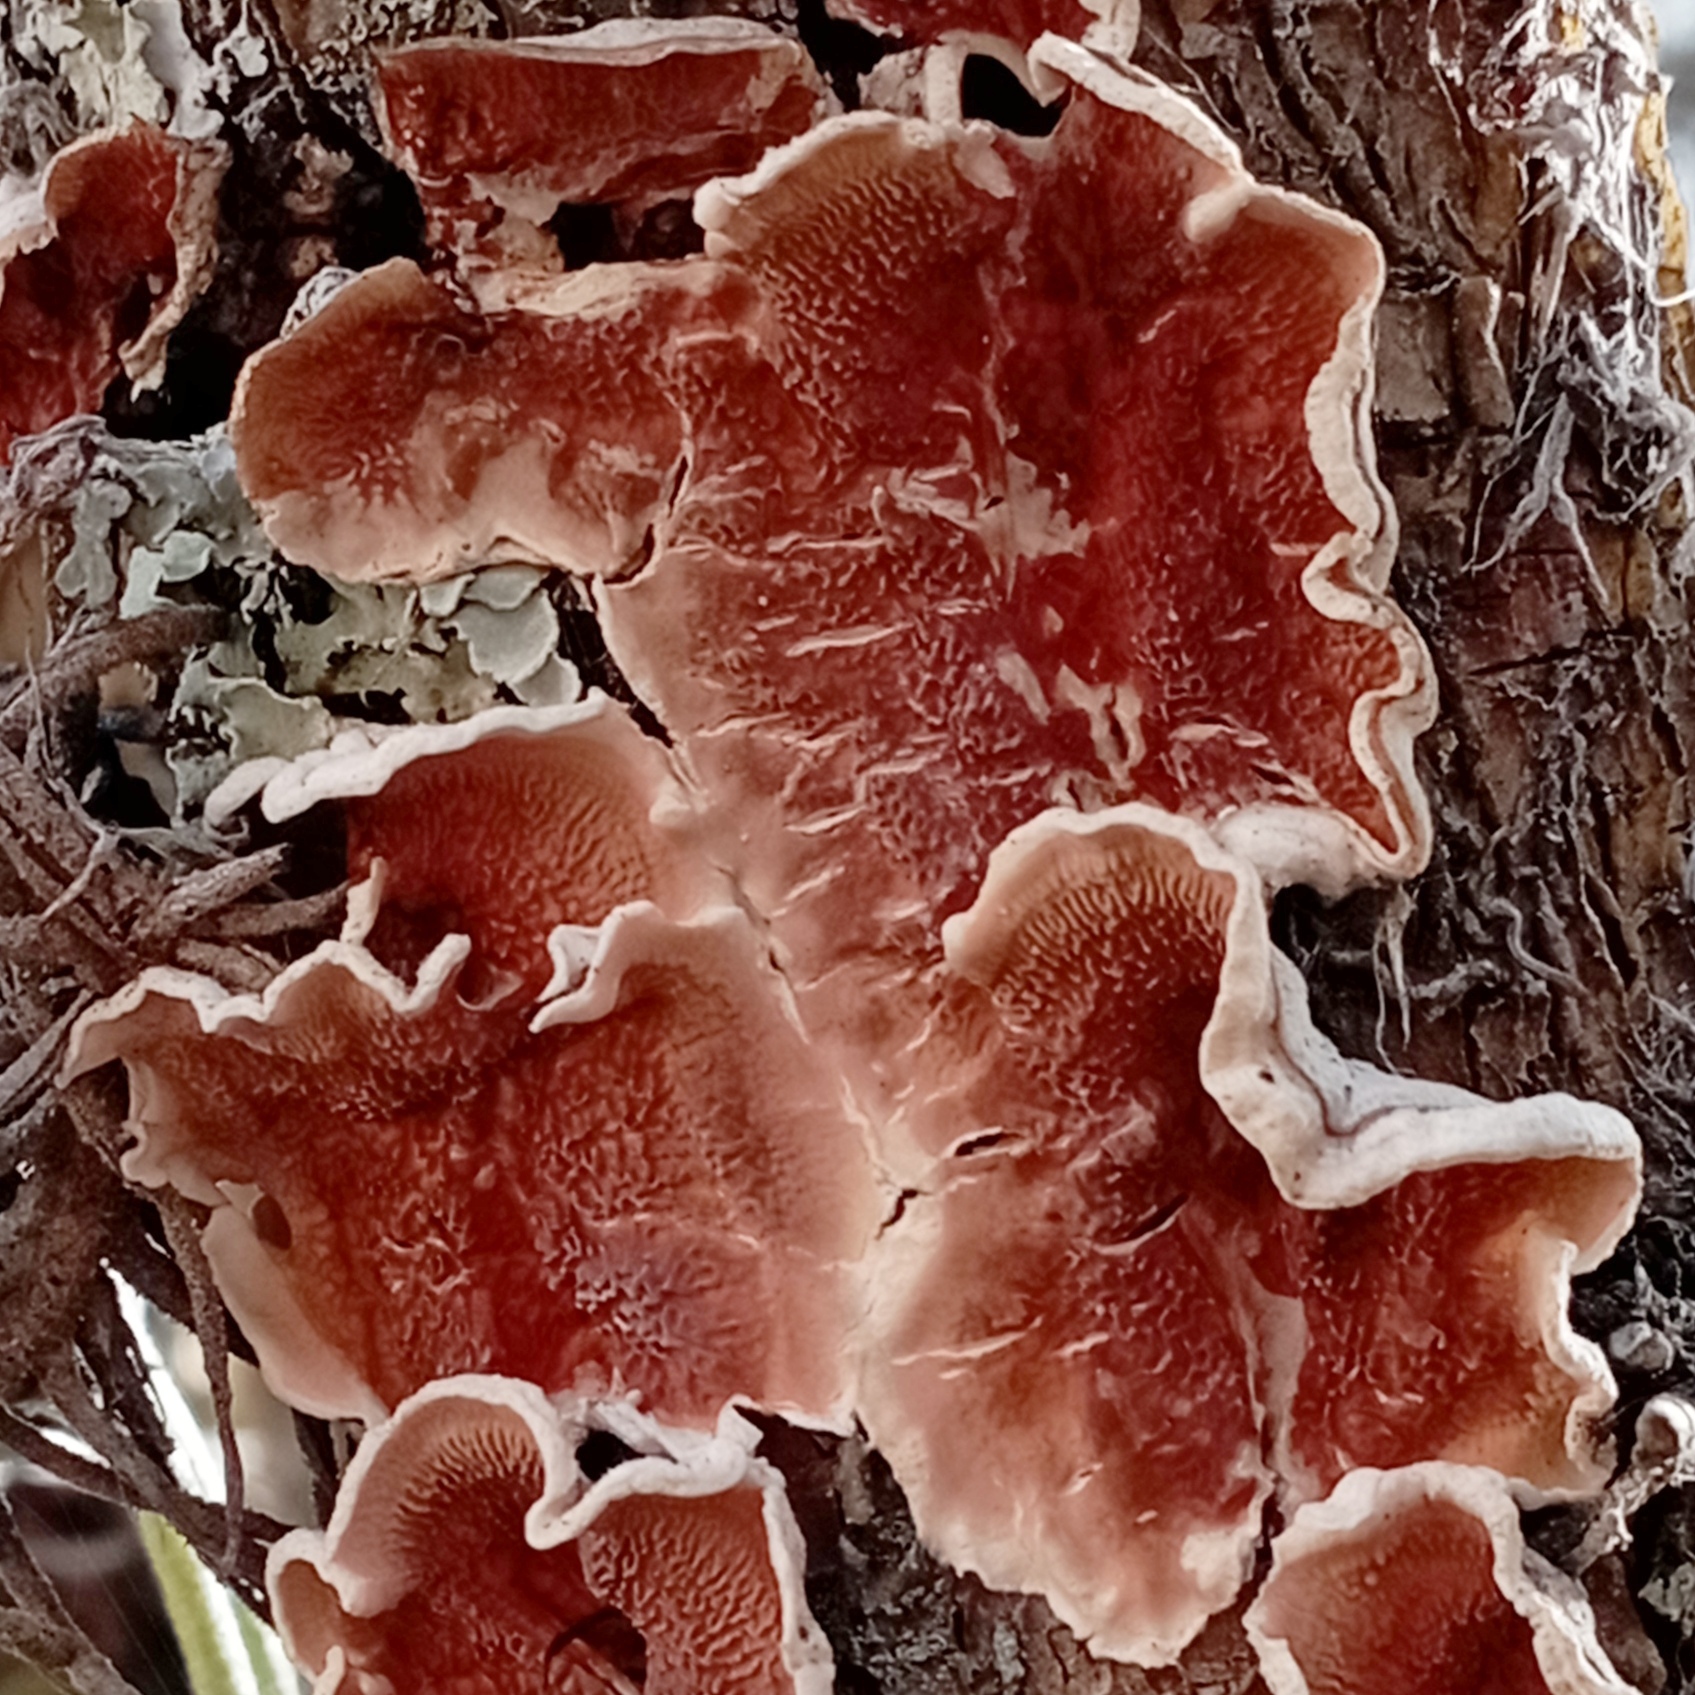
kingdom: Fungi
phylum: Basidiomycota
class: Agaricomycetes
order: Polyporales
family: Irpicaceae
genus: Byssomerulius
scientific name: Byssomerulius corium
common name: Netted crust
